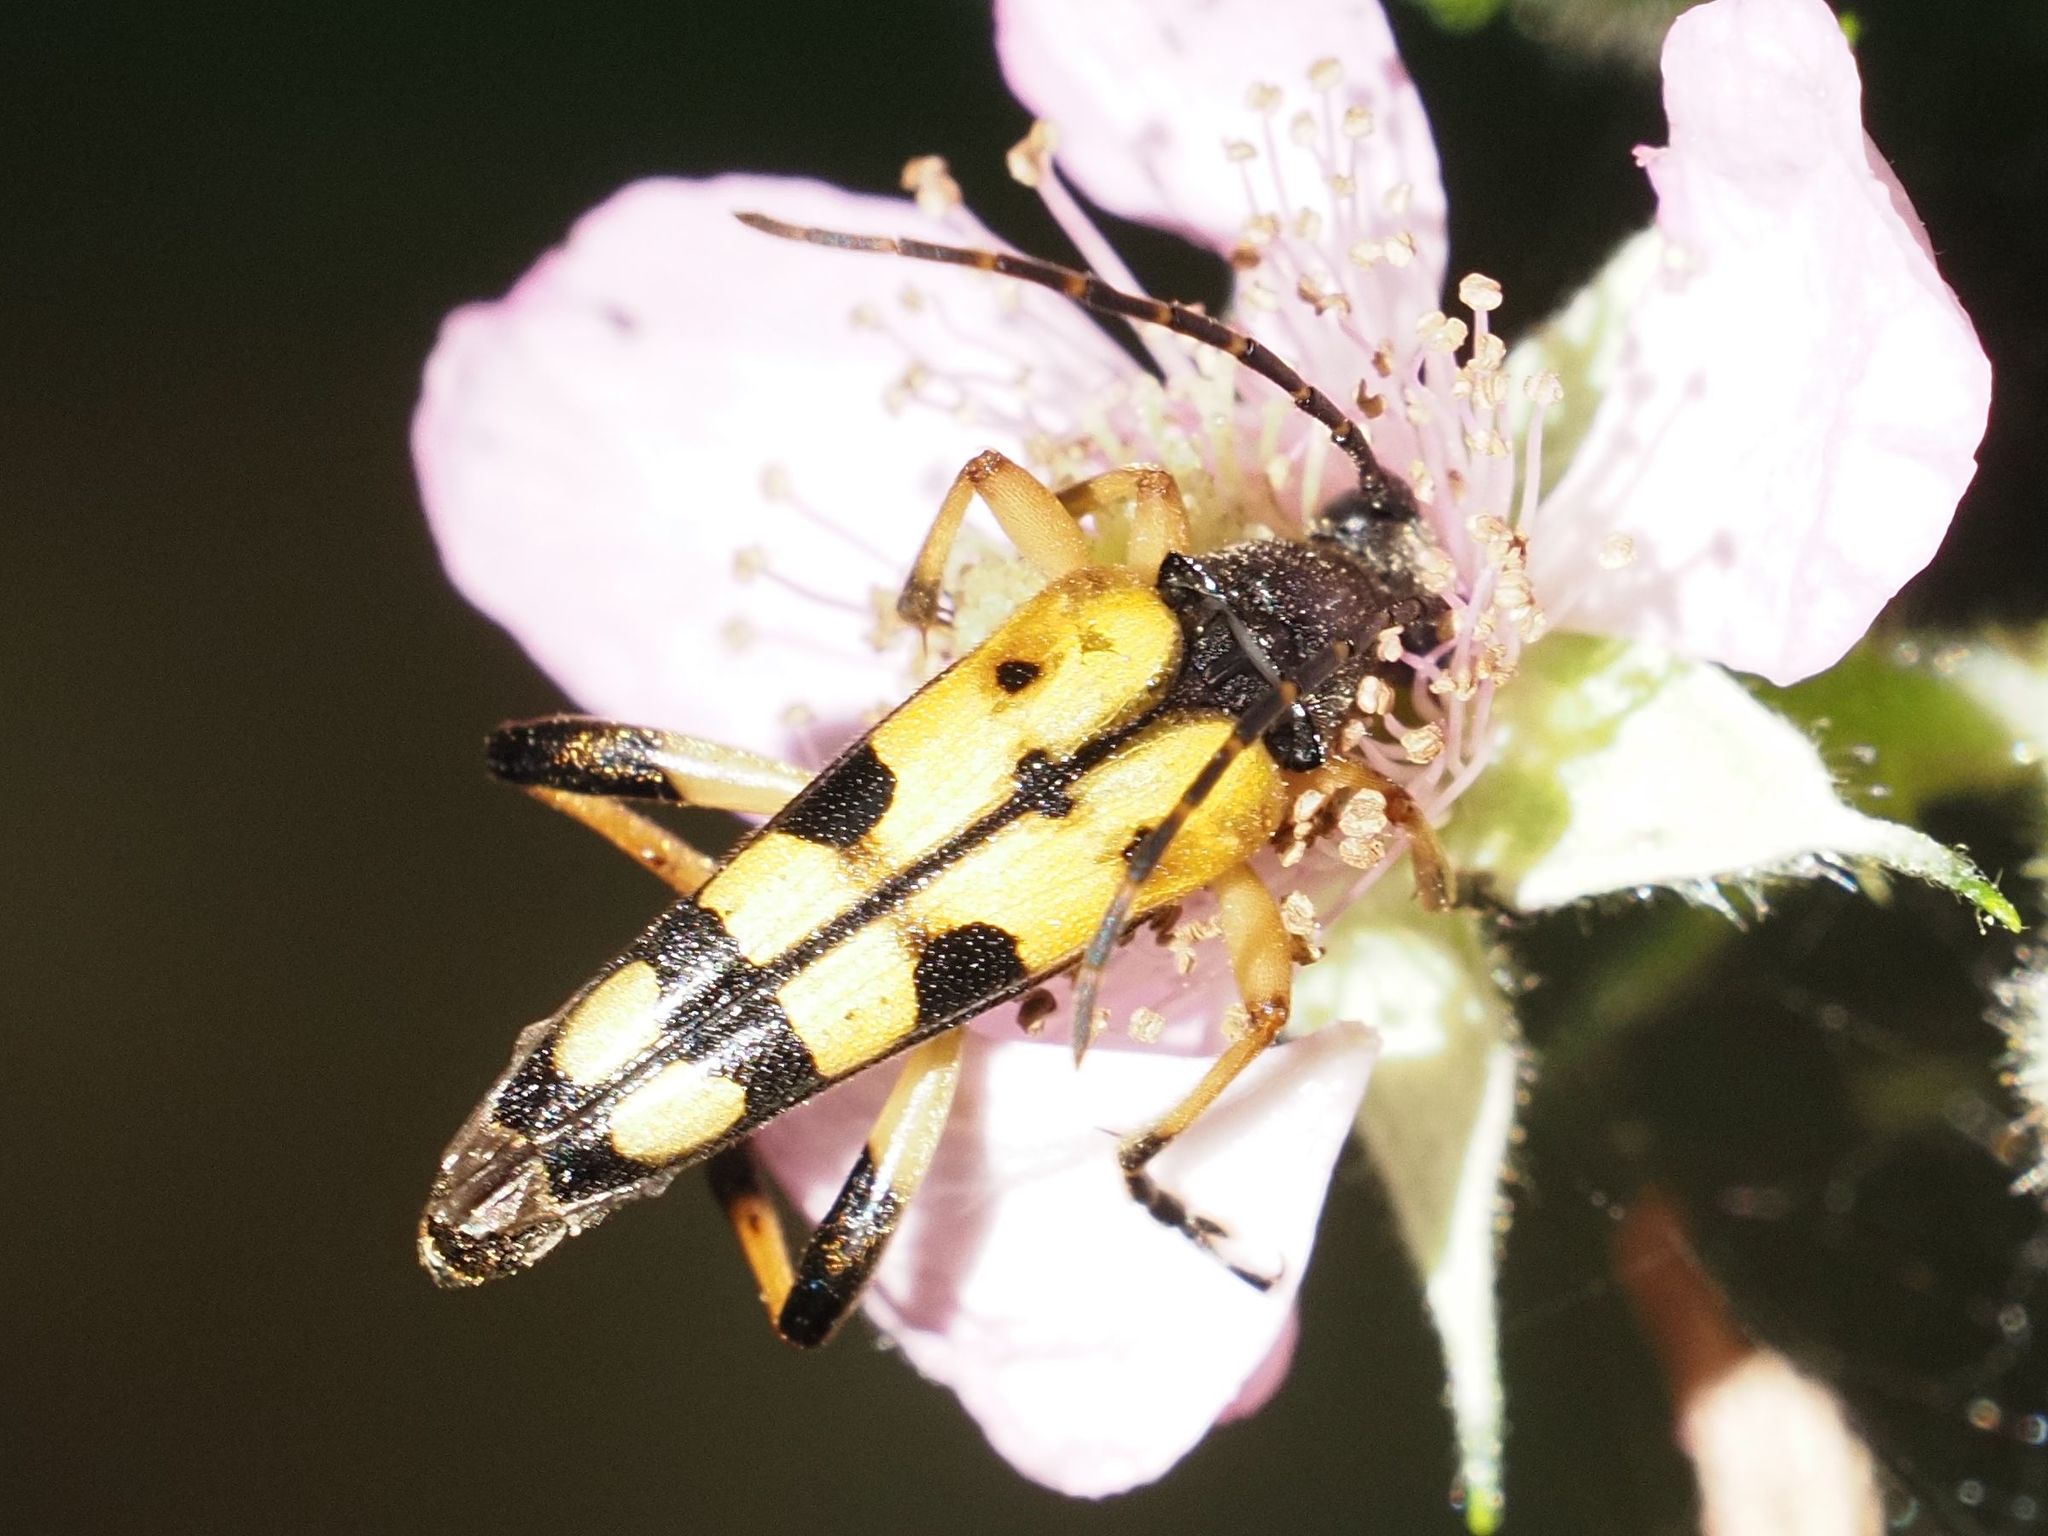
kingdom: Animalia
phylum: Arthropoda
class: Insecta
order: Coleoptera
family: Cerambycidae
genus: Rutpela
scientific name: Rutpela maculata
